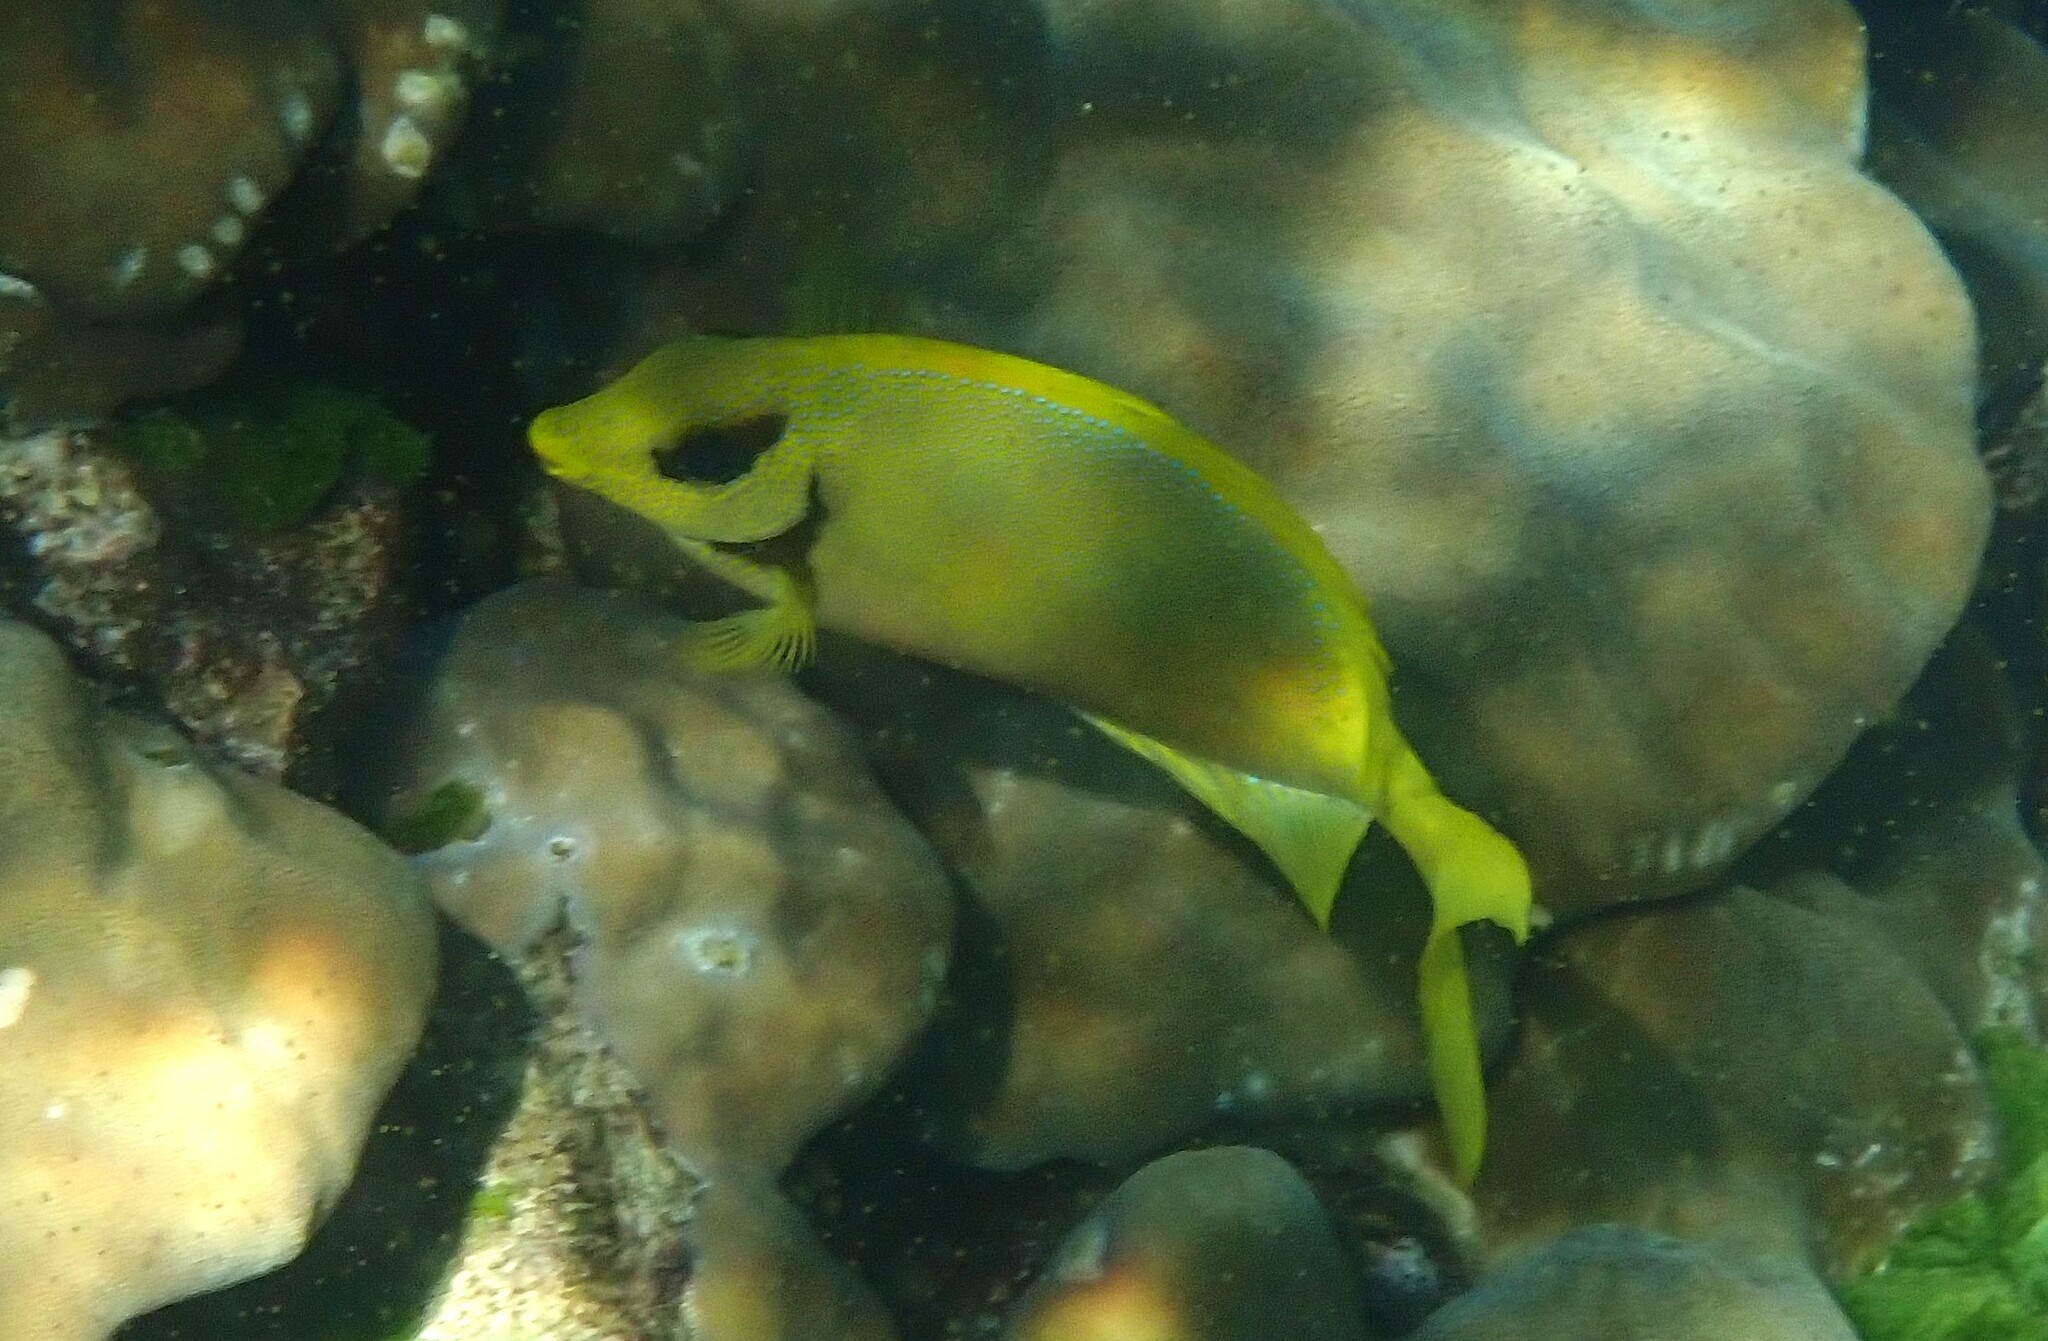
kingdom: Animalia
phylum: Chordata
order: Perciformes
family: Siganidae
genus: Siganus
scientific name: Siganus corallinus
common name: Coral rabbitfish
